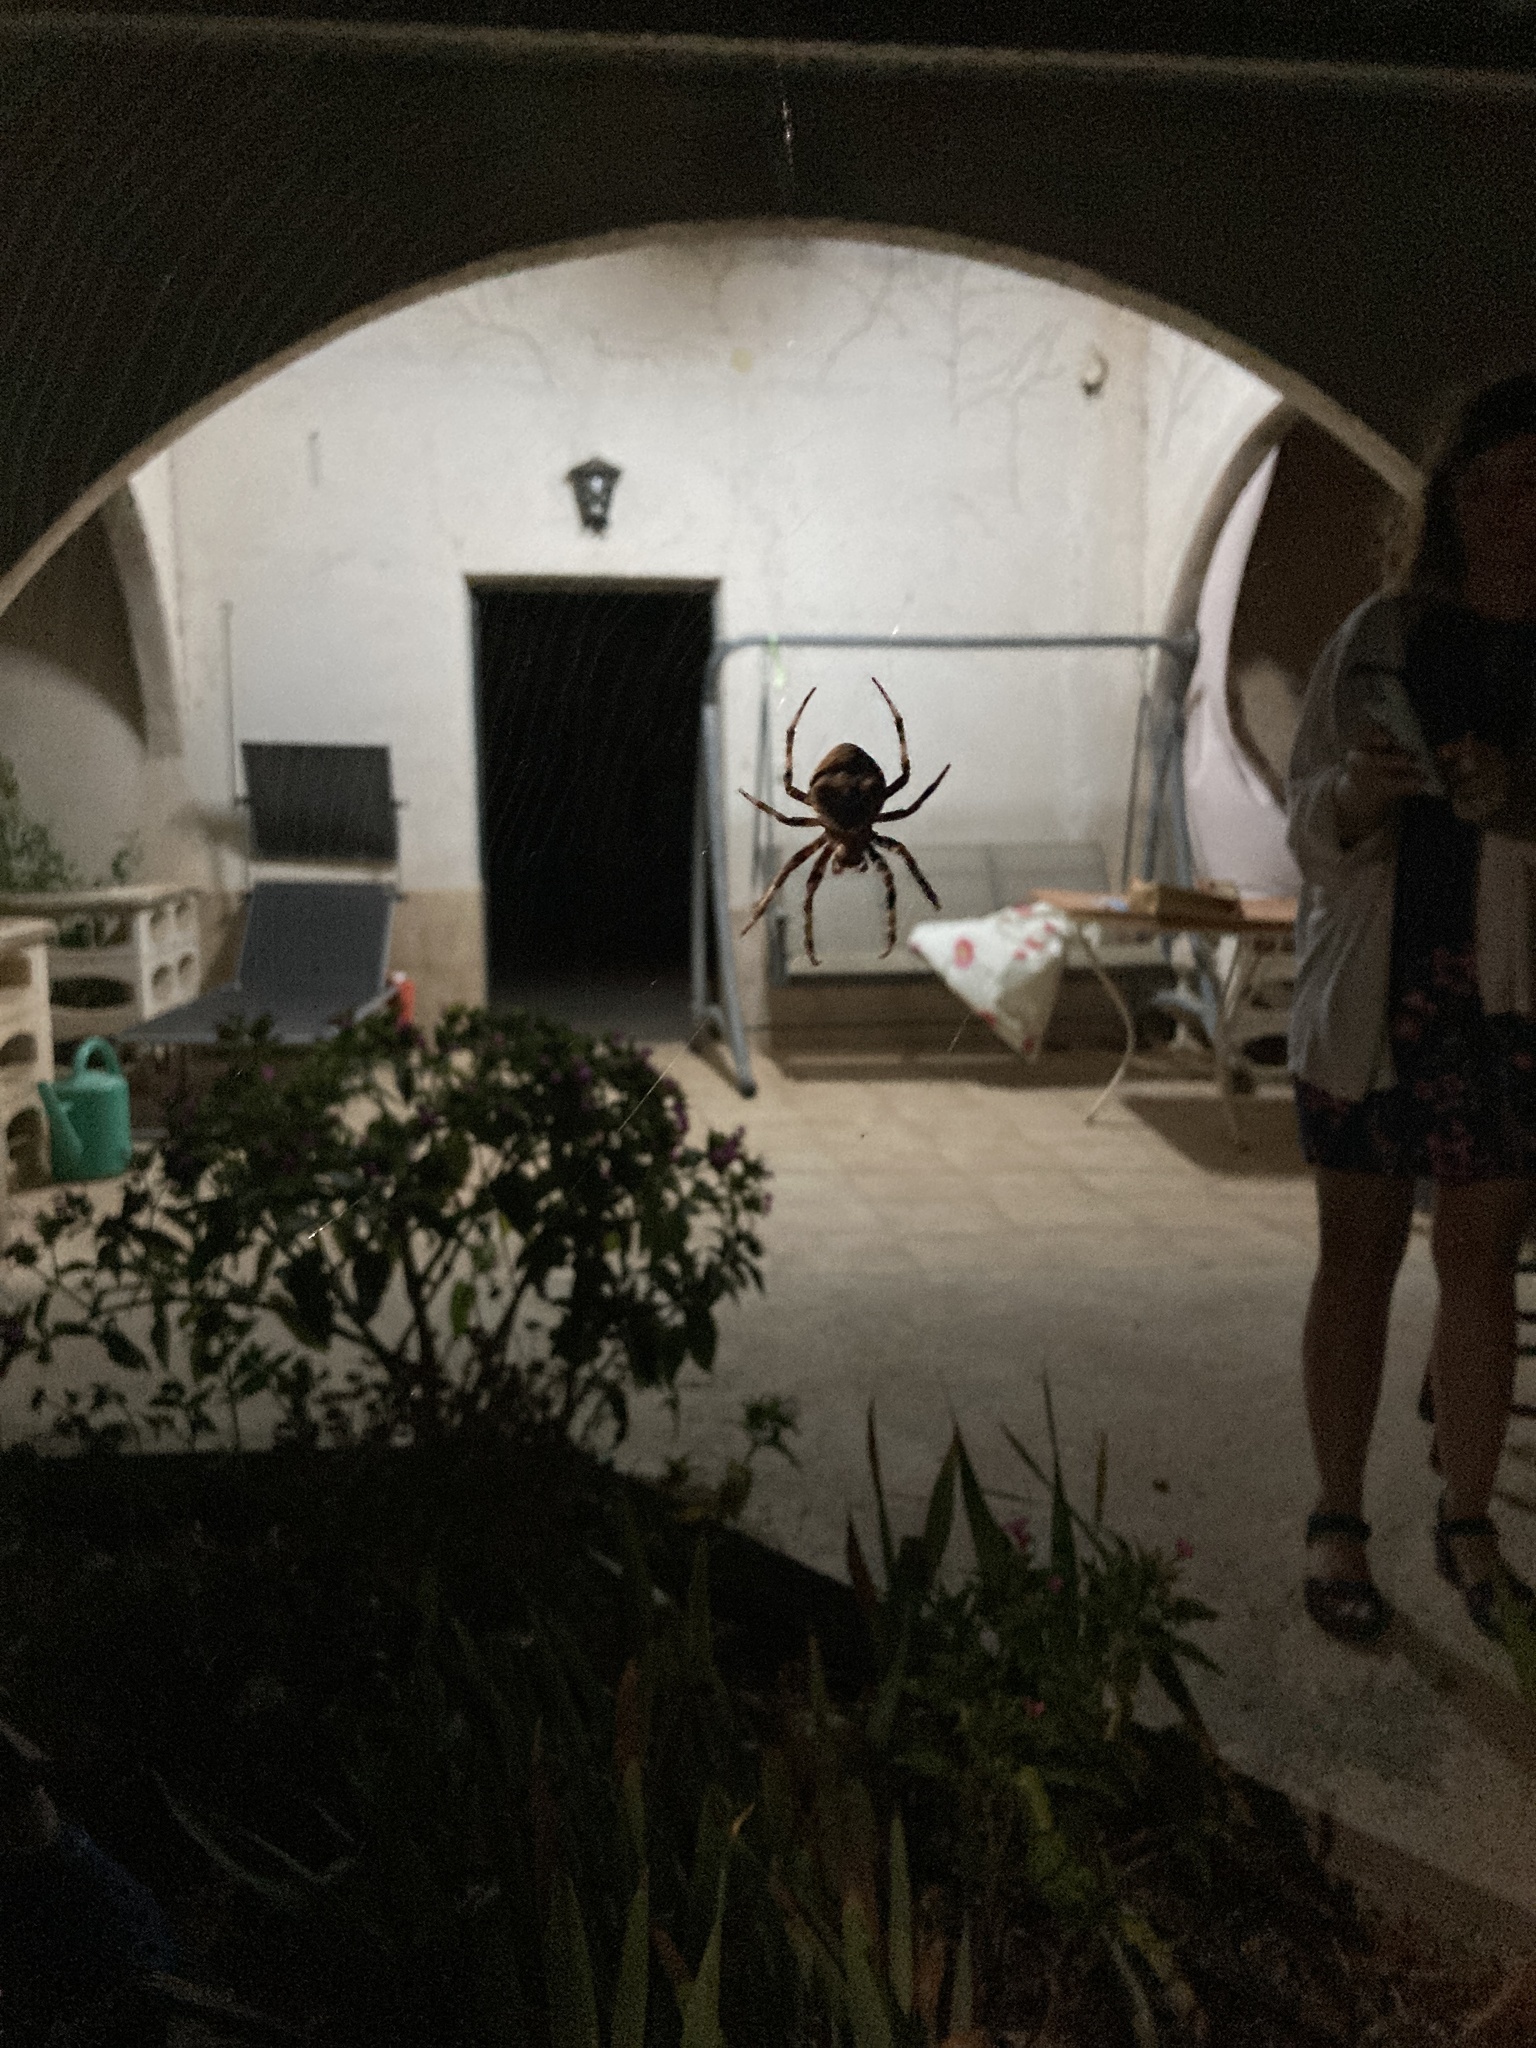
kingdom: Animalia
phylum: Arthropoda
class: Arachnida
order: Araneae
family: Araneidae
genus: Araneus
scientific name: Araneus angulatus
